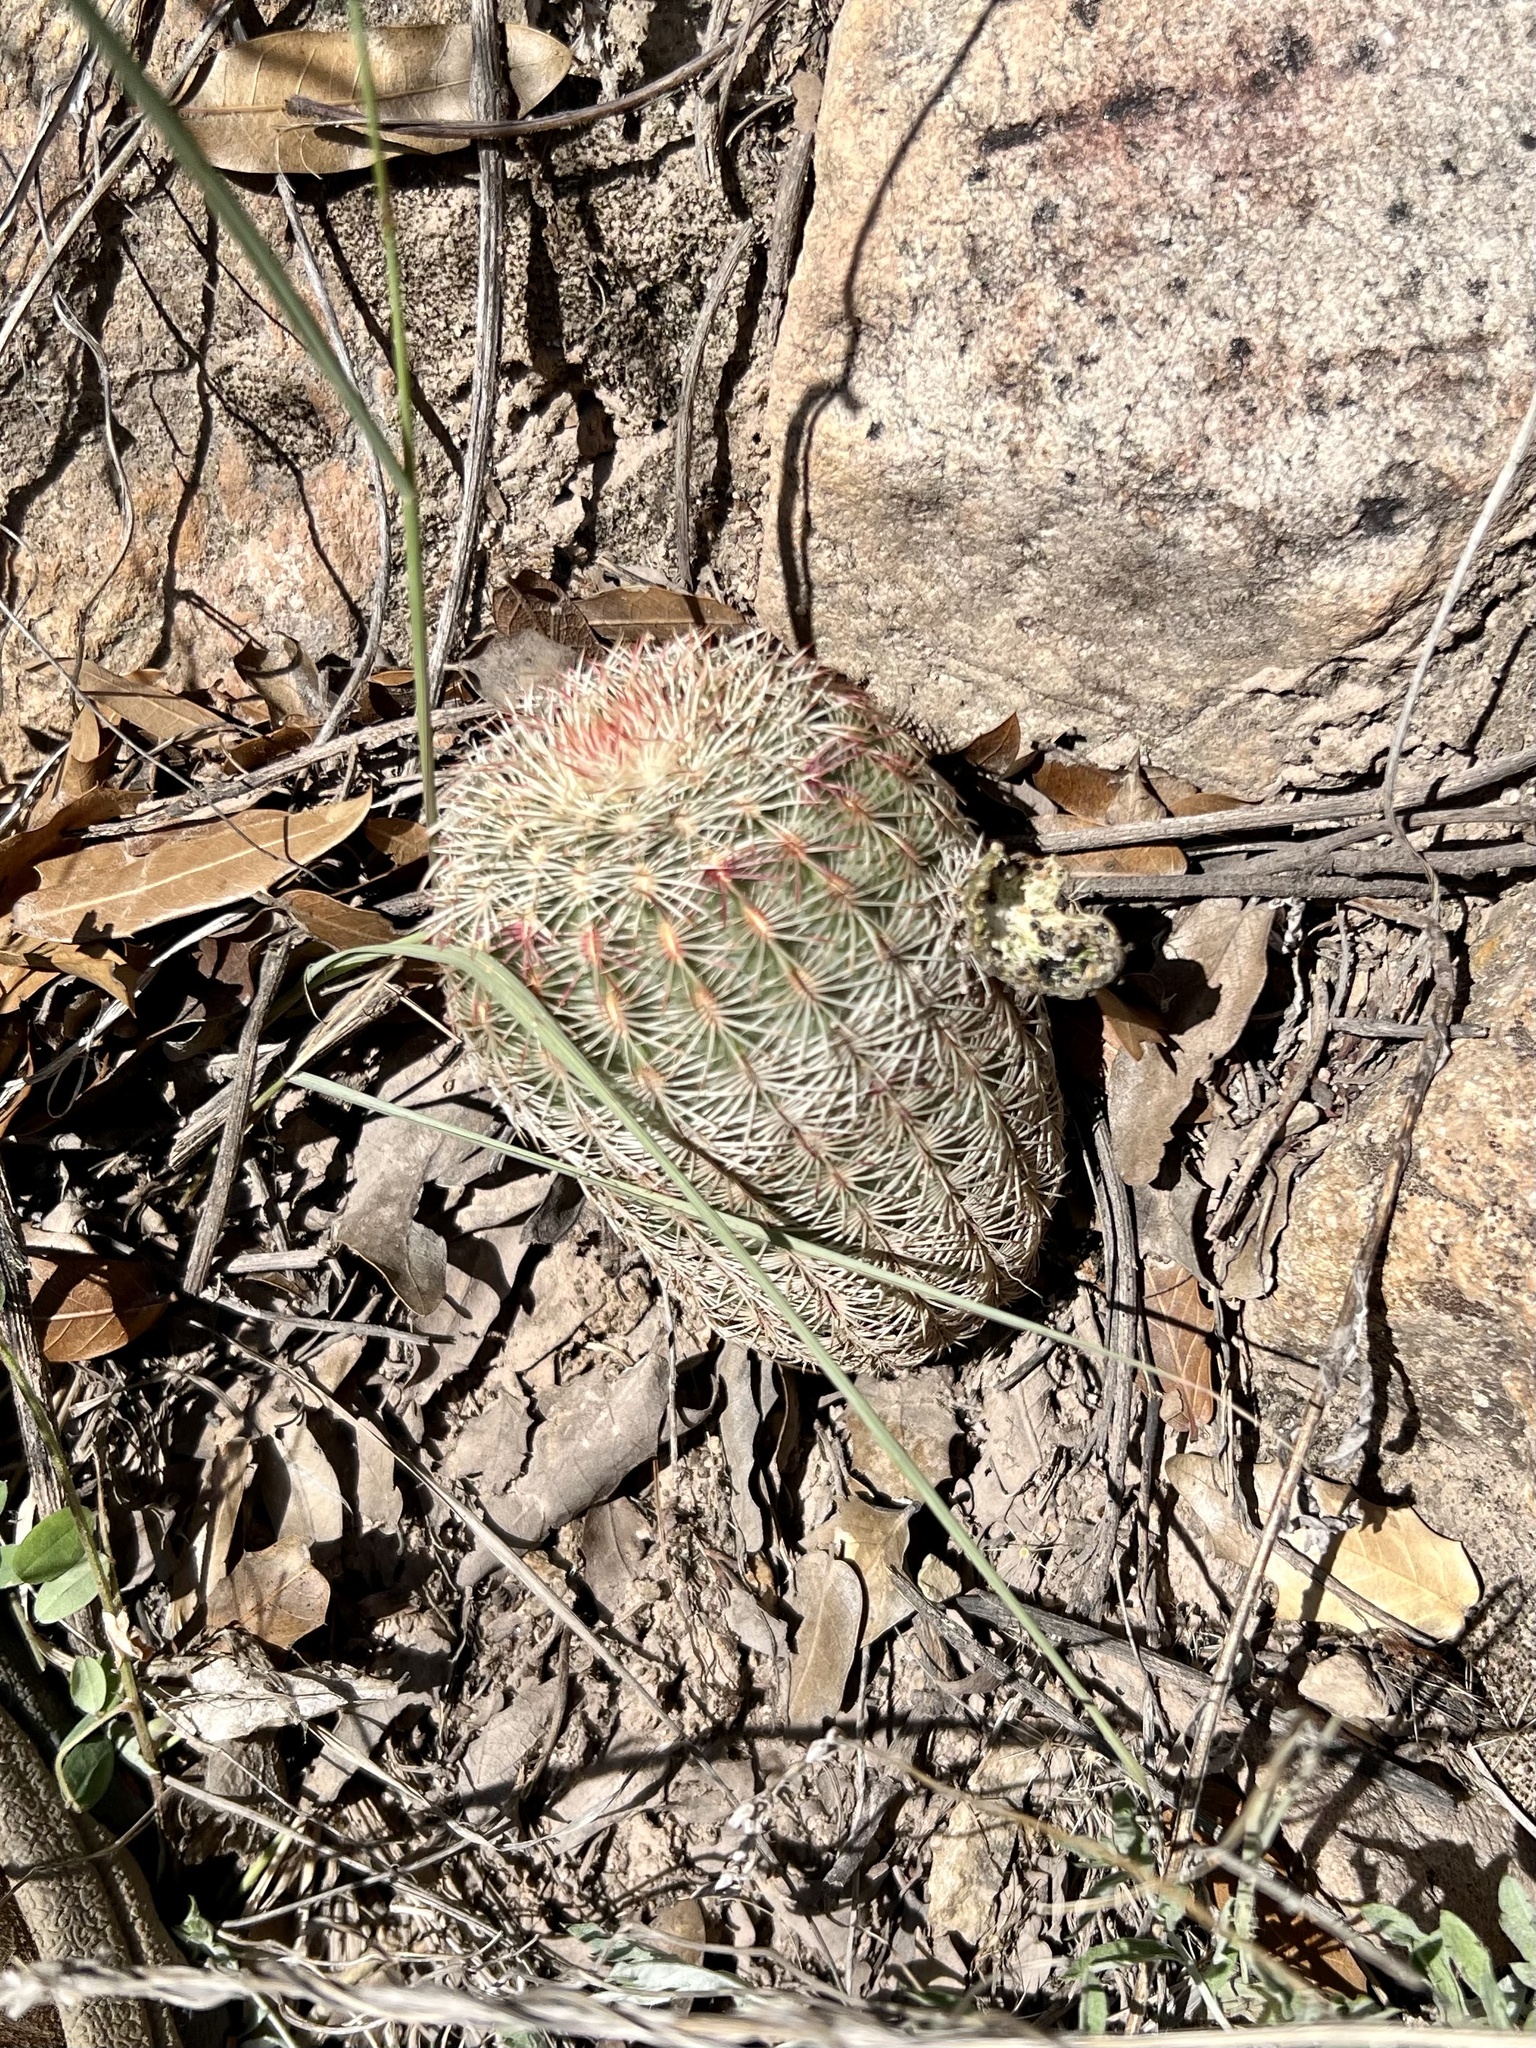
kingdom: Plantae
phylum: Tracheophyta
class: Magnoliopsida
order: Caryophyllales
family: Cactaceae
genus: Echinocereus
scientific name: Echinocereus rigidissimus
